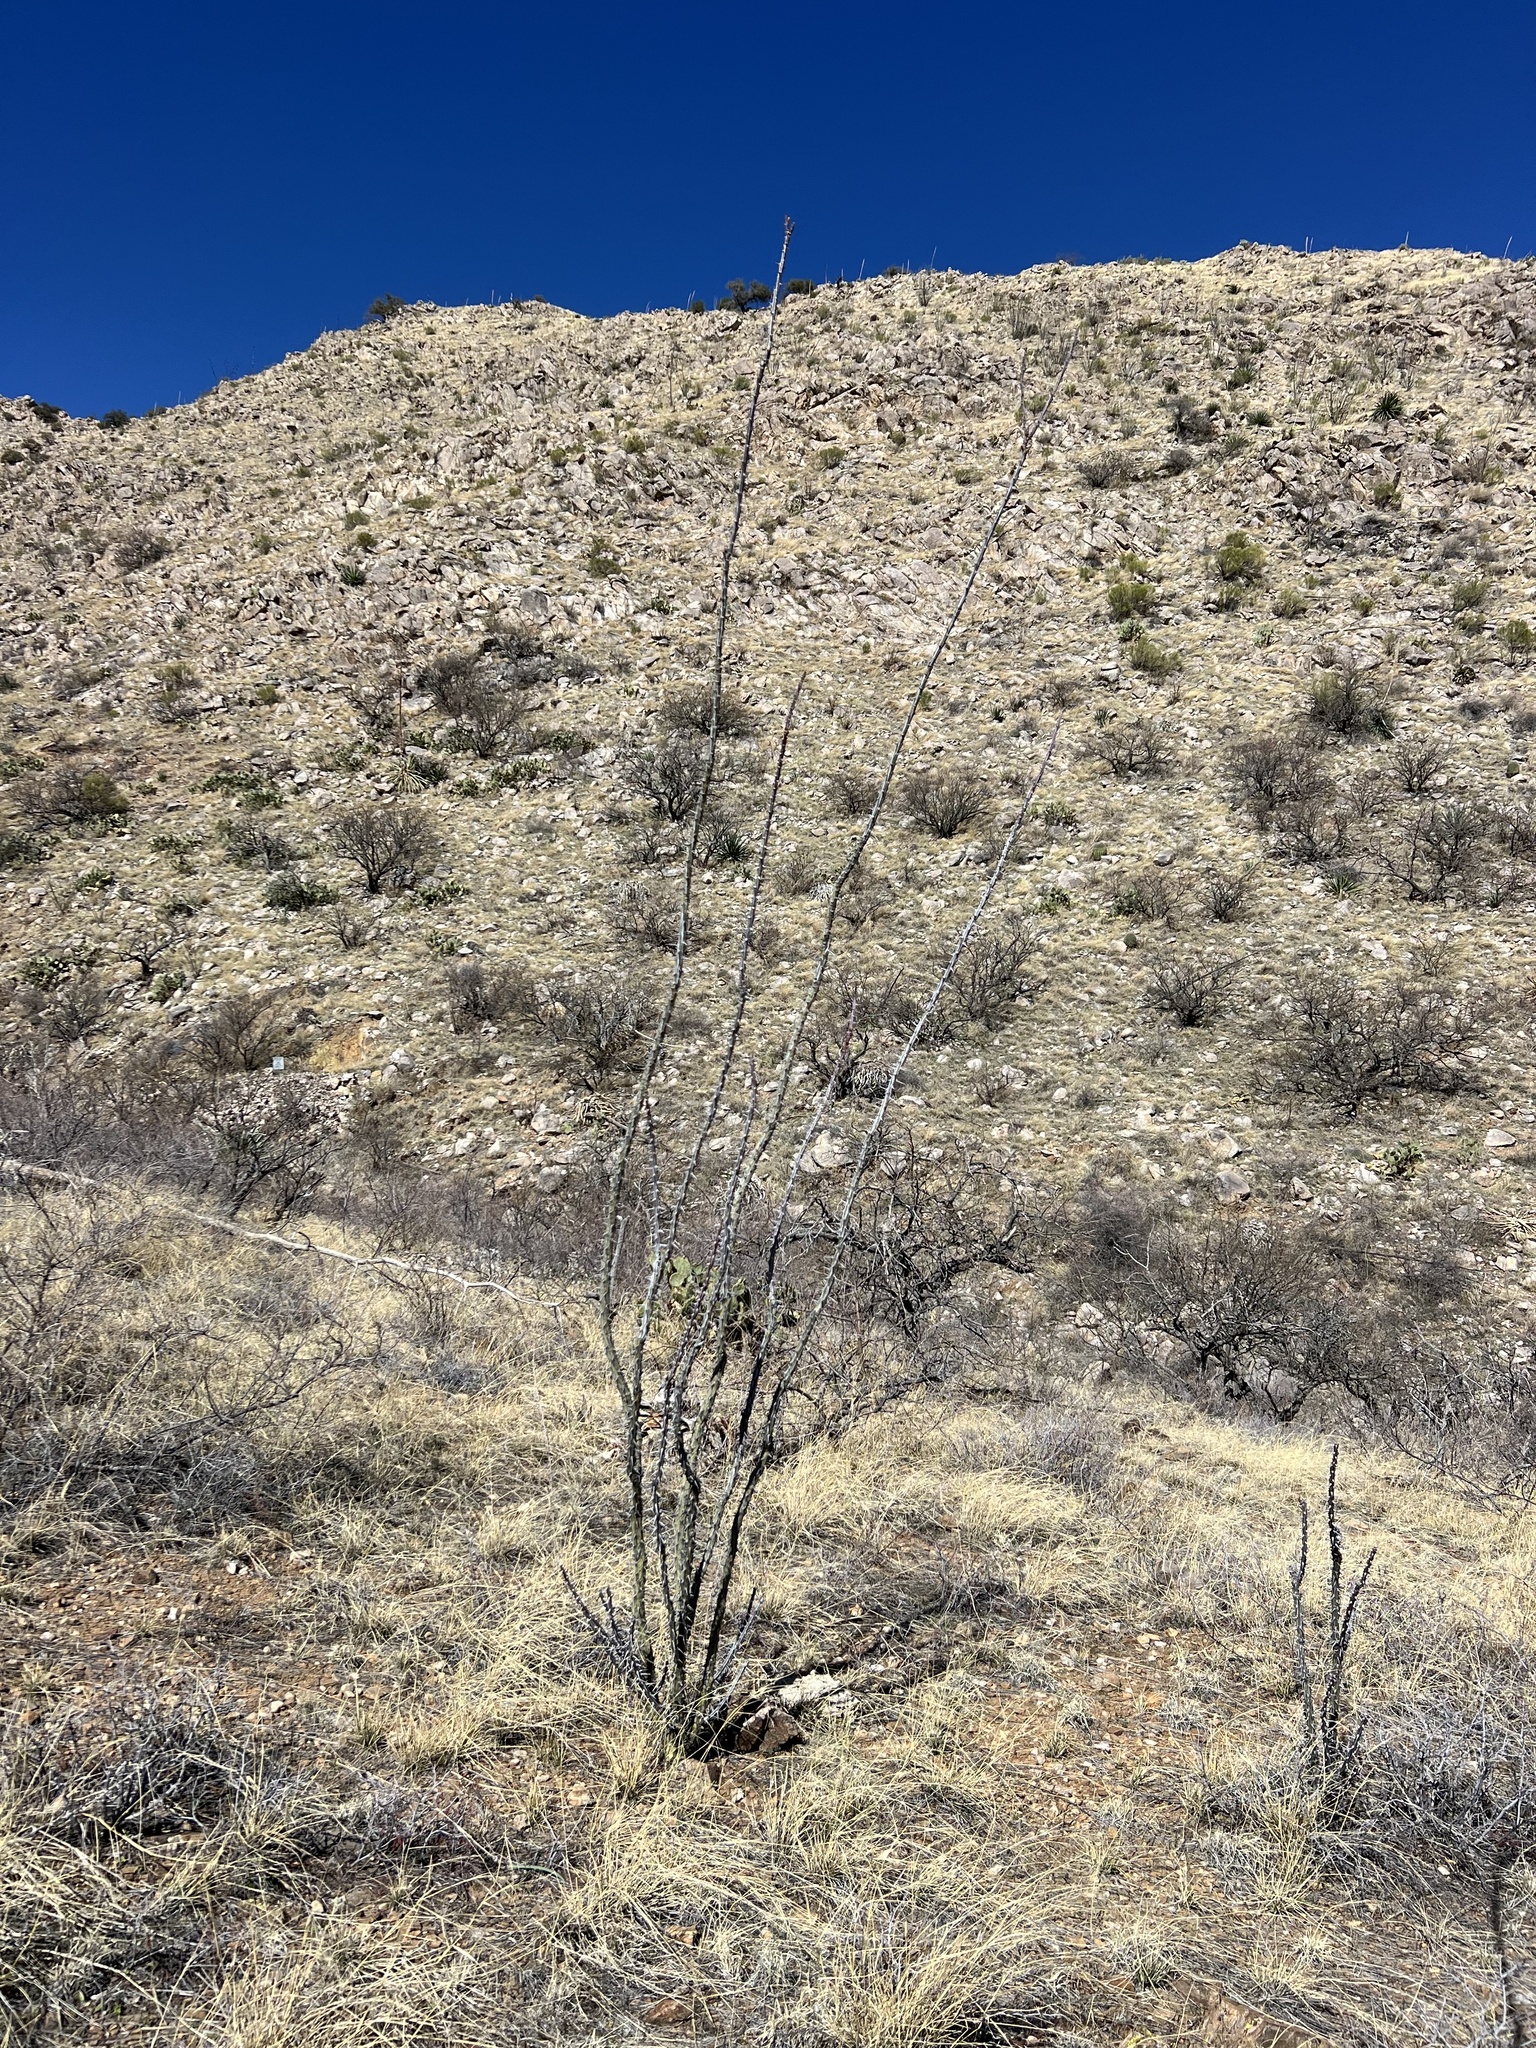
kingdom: Plantae
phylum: Tracheophyta
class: Magnoliopsida
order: Ericales
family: Fouquieriaceae
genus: Fouquieria
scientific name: Fouquieria splendens
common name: Vine-cactus
